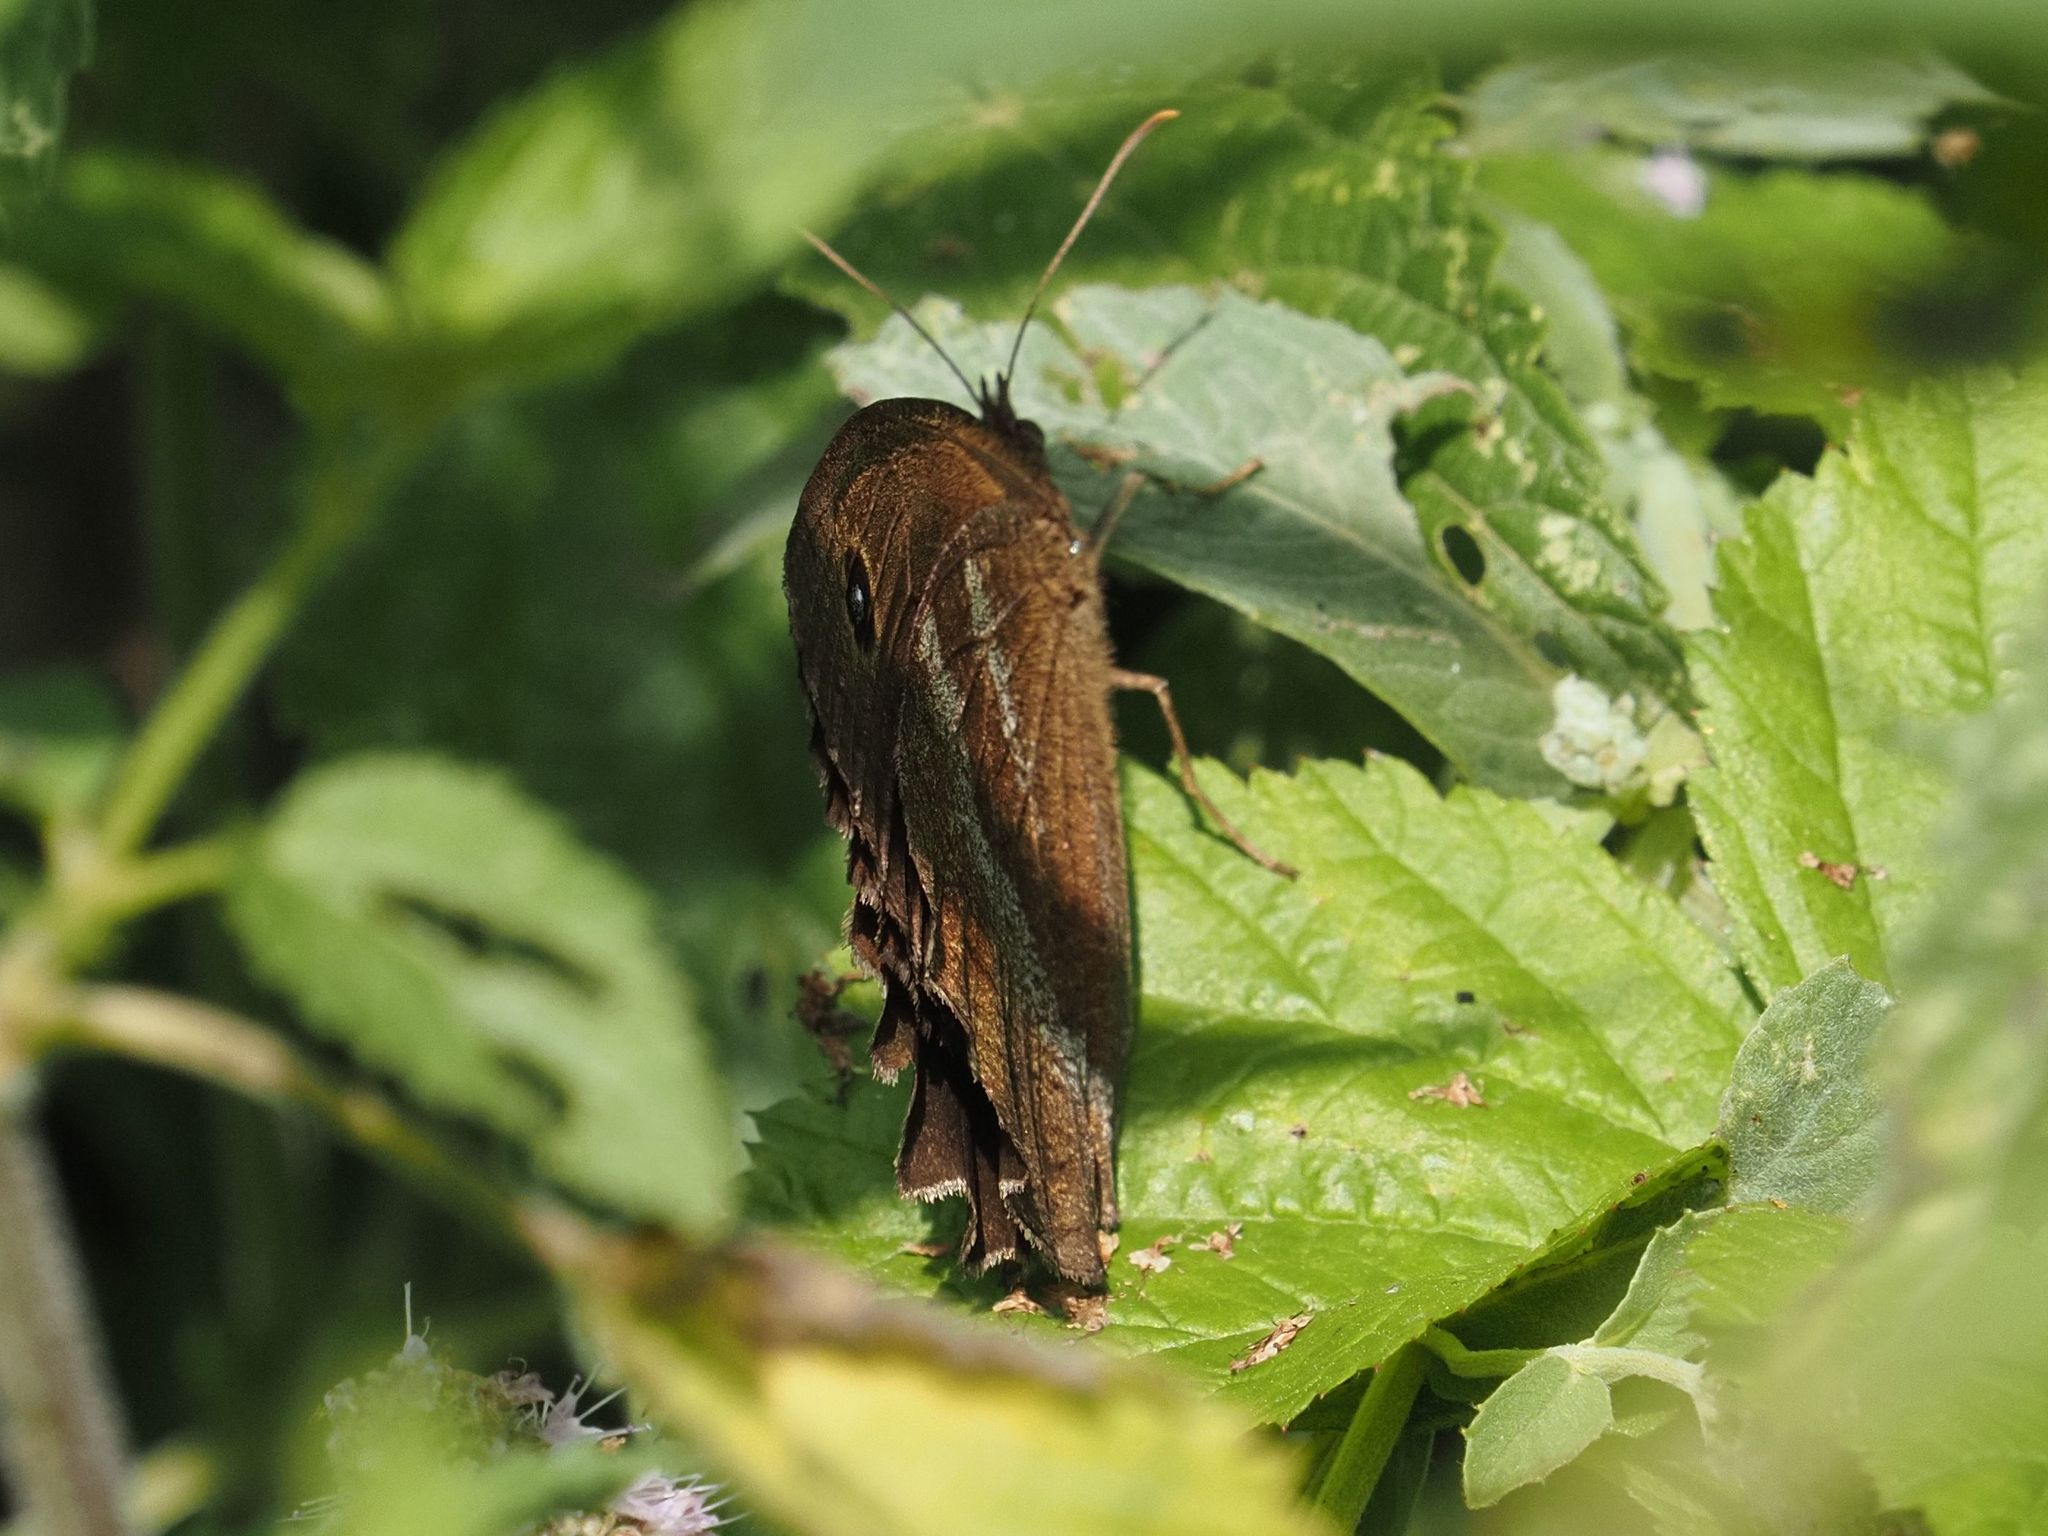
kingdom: Animalia
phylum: Arthropoda
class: Insecta
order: Lepidoptera
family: Nymphalidae
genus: Minois
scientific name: Minois dryas
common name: Dryad
